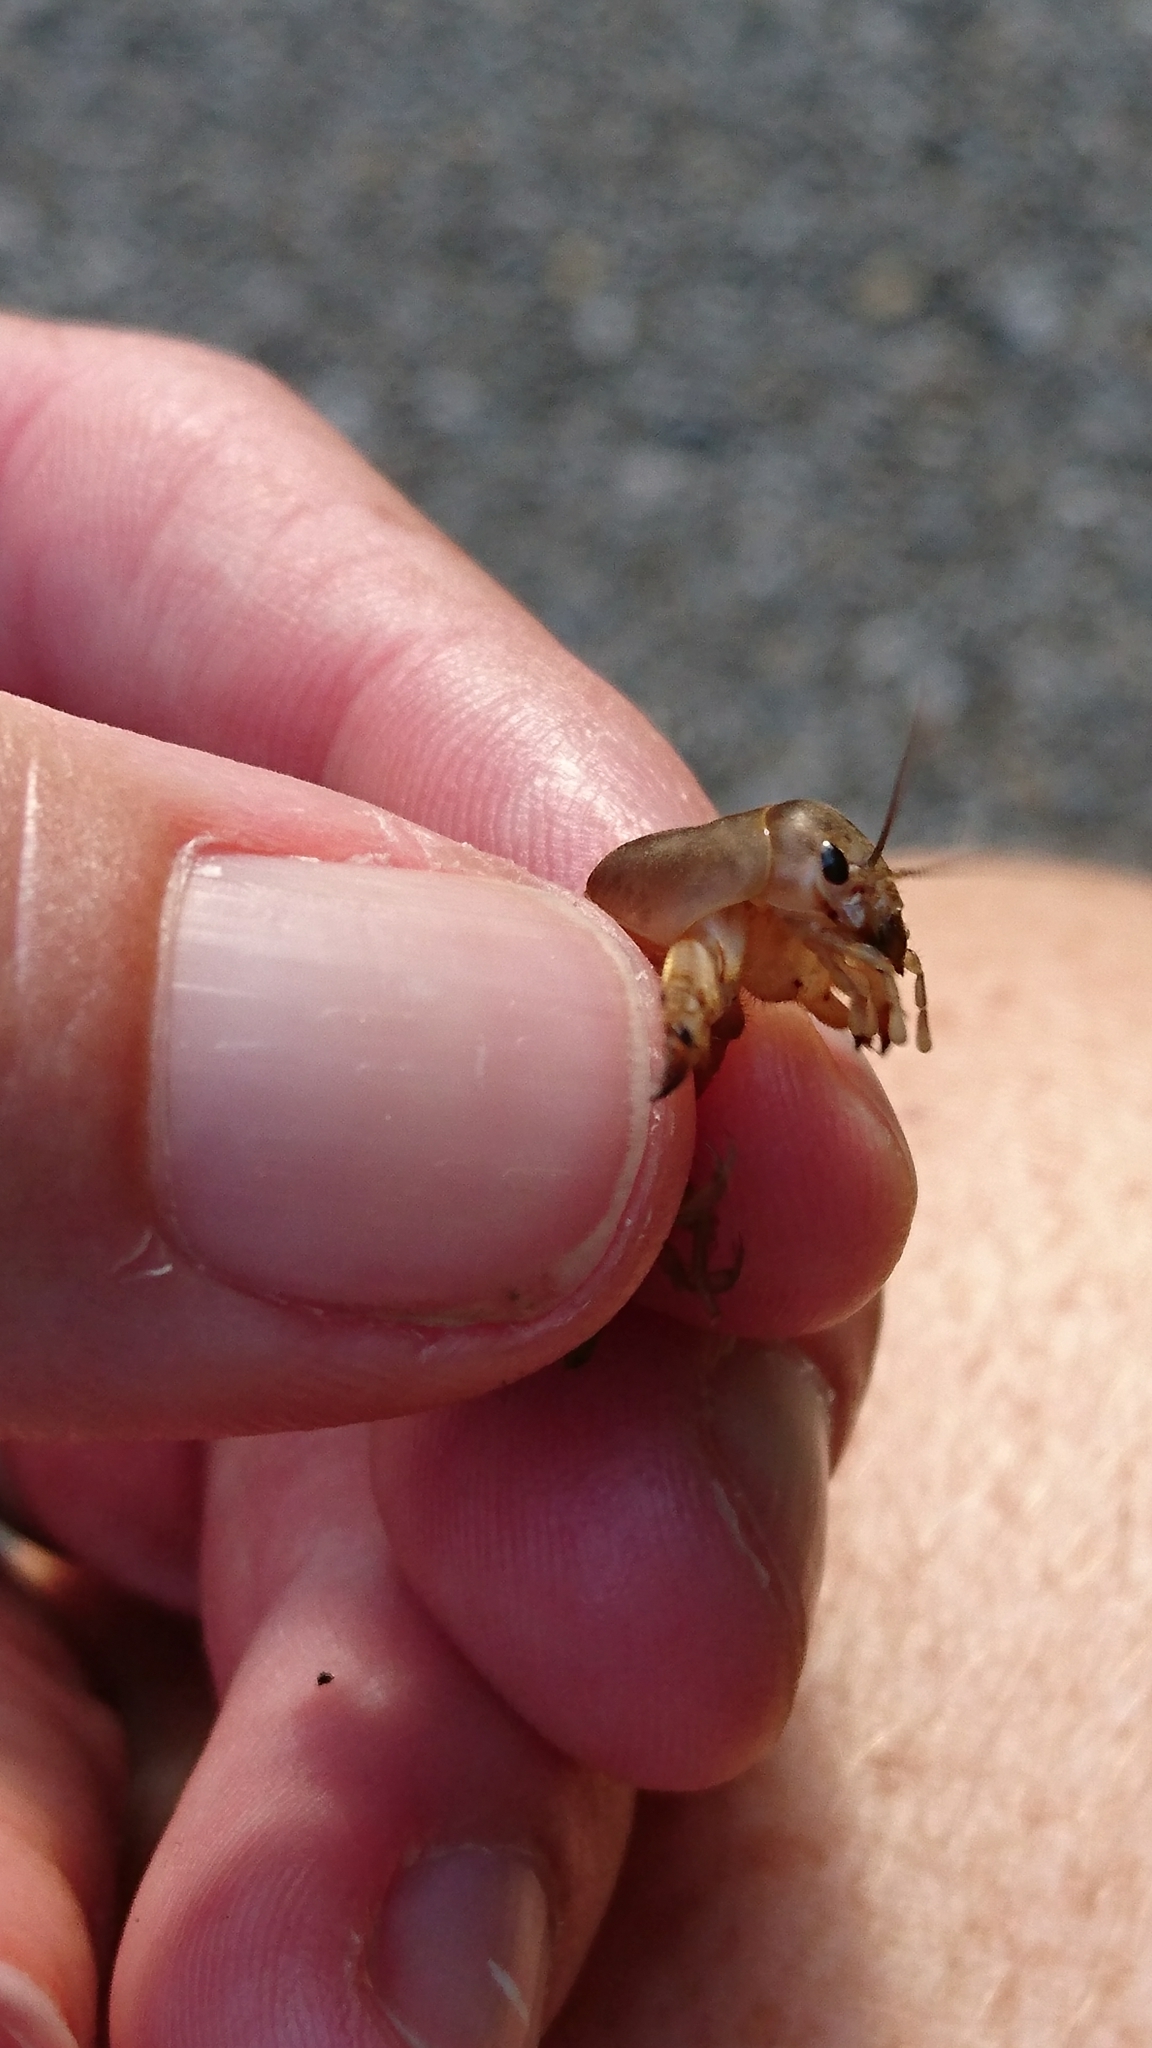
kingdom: Animalia
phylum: Arthropoda
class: Insecta
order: Orthoptera
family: Gryllotalpidae
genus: Neoscapteriscus
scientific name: Neoscapteriscus vicinus
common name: Tawny mole cricket
